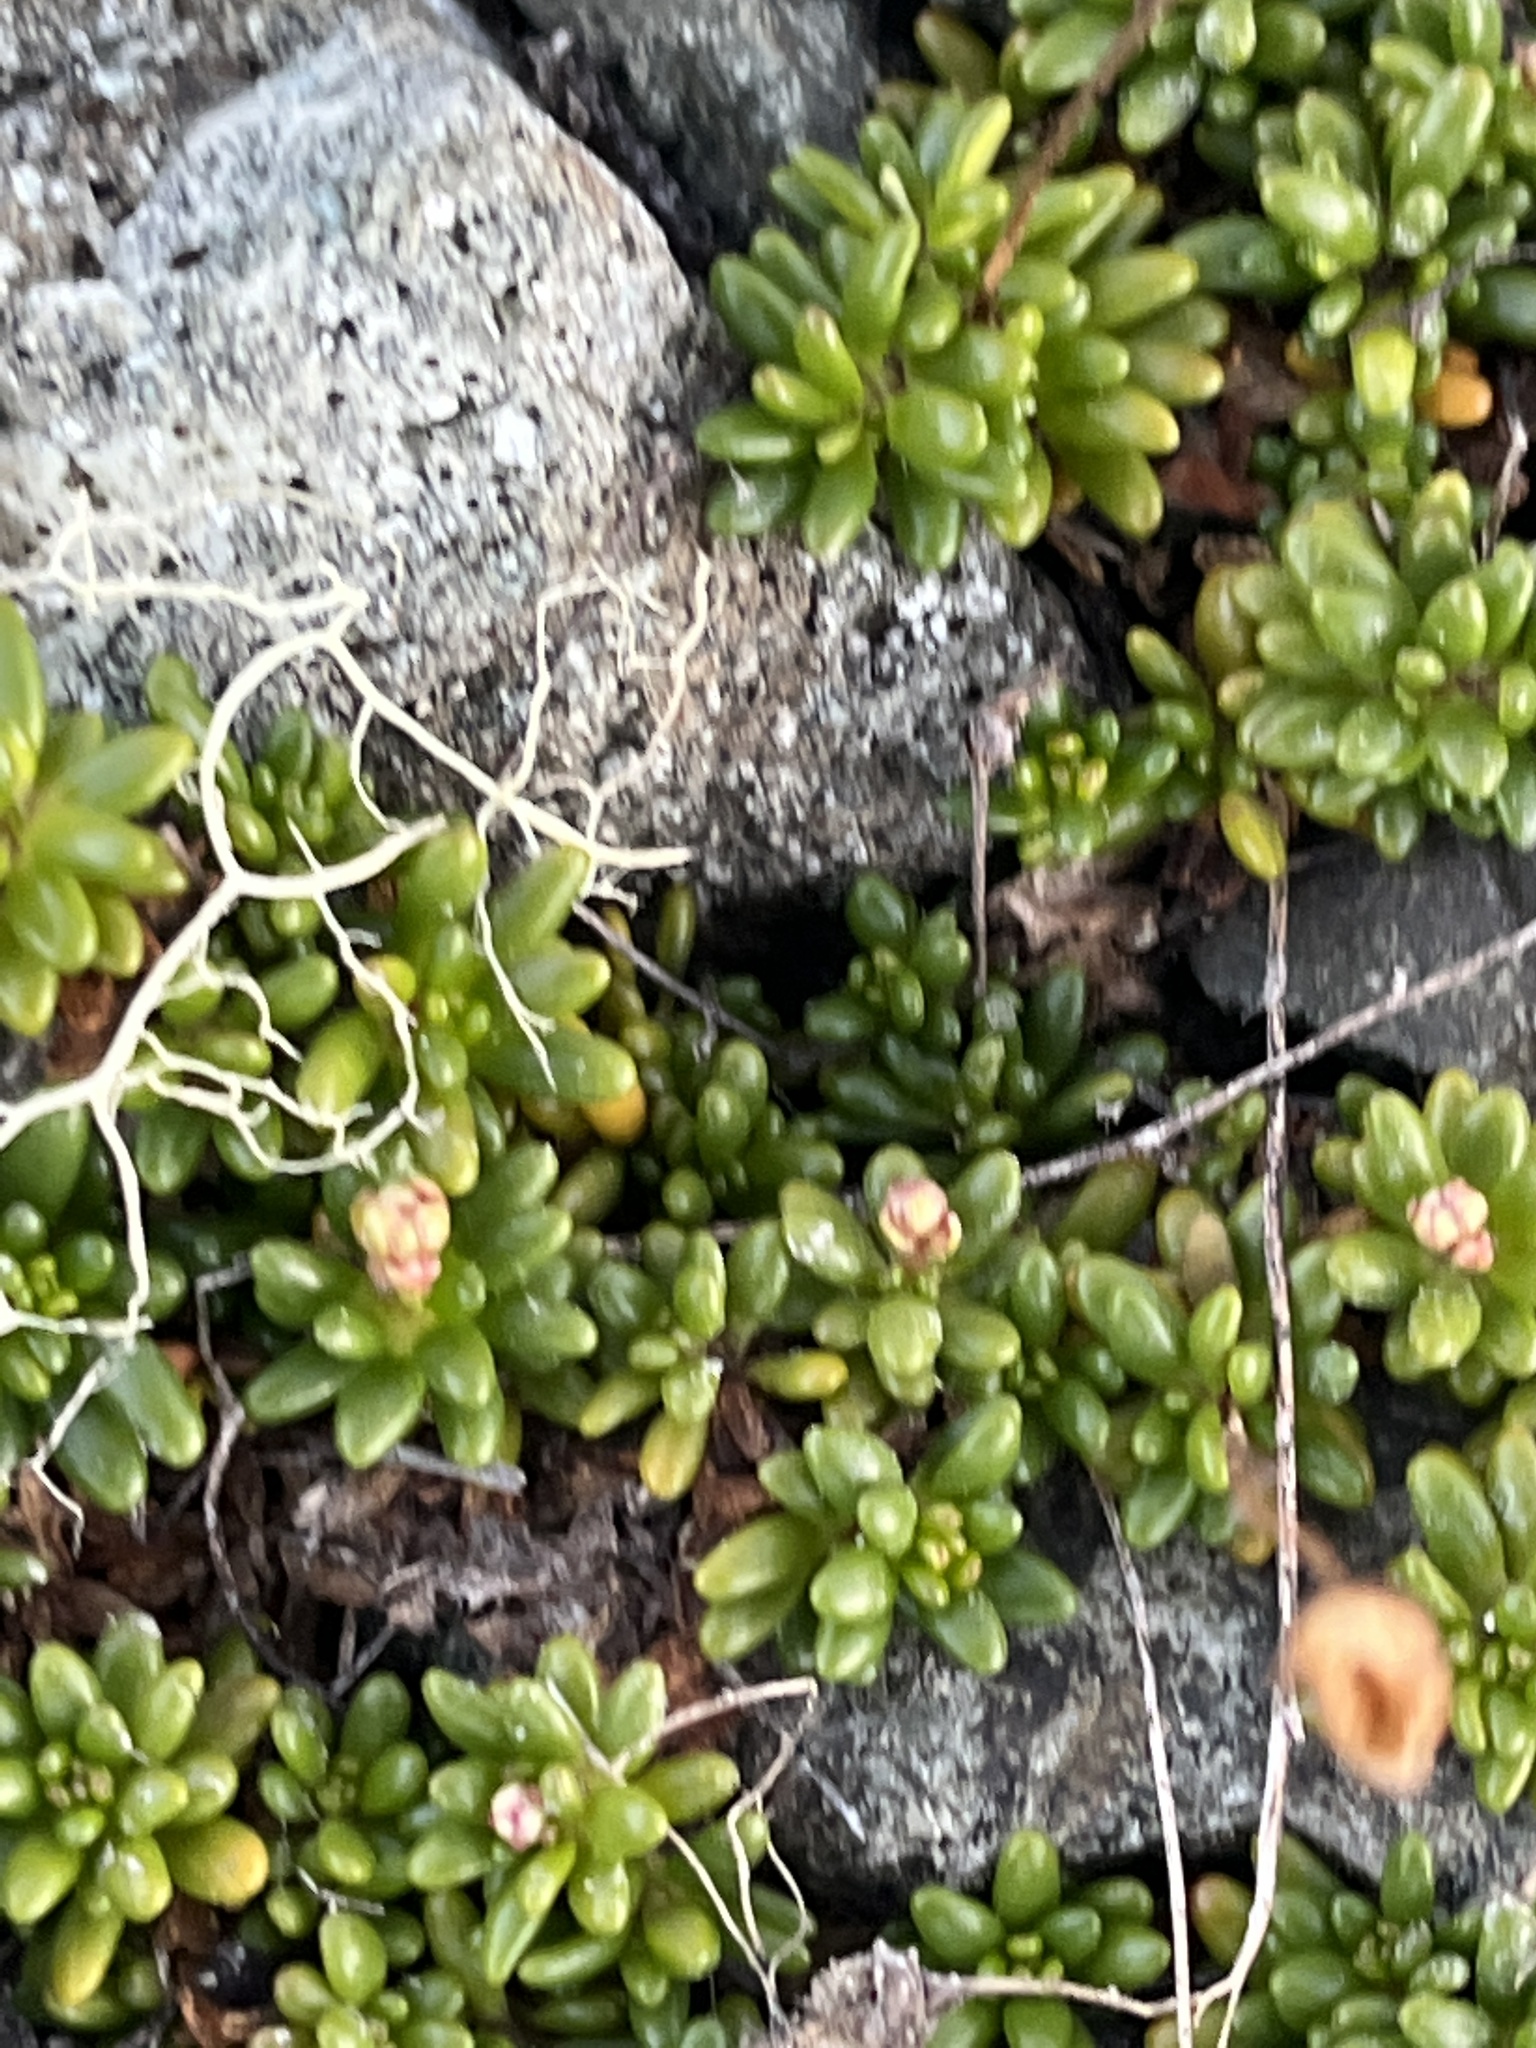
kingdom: Plantae
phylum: Tracheophyta
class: Magnoliopsida
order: Saxifragales
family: Saxifragaceae
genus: Micranthes
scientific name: Micranthes tolmiei
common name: Tolmie's saxifrage
